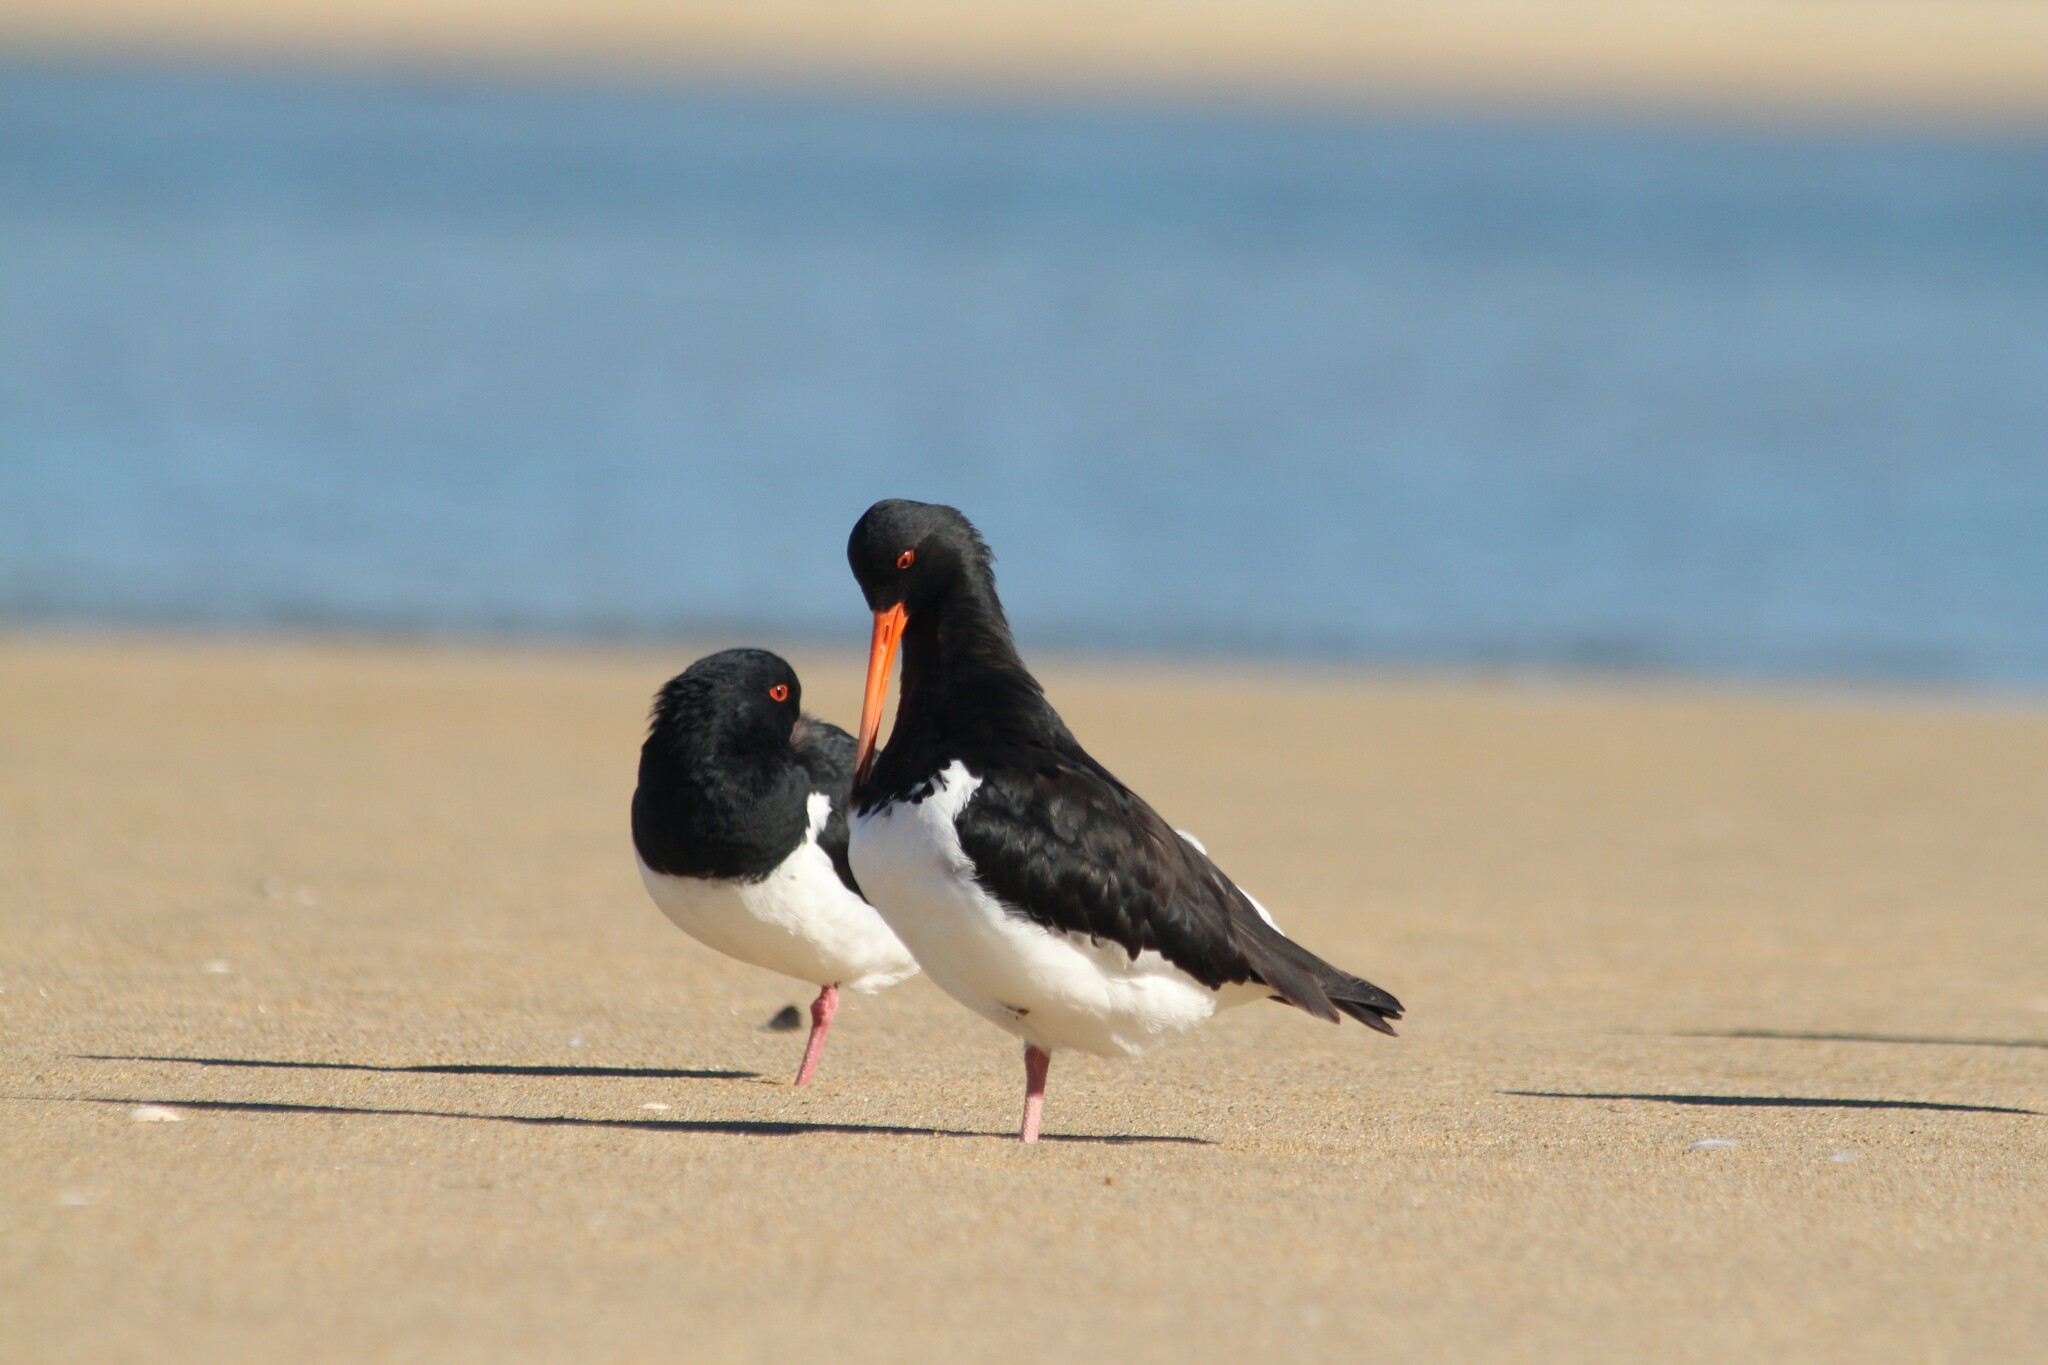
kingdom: Animalia
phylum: Chordata
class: Aves
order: Charadriiformes
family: Haematopodidae
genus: Haematopus
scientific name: Haematopus finschi
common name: South island oystercatcher
